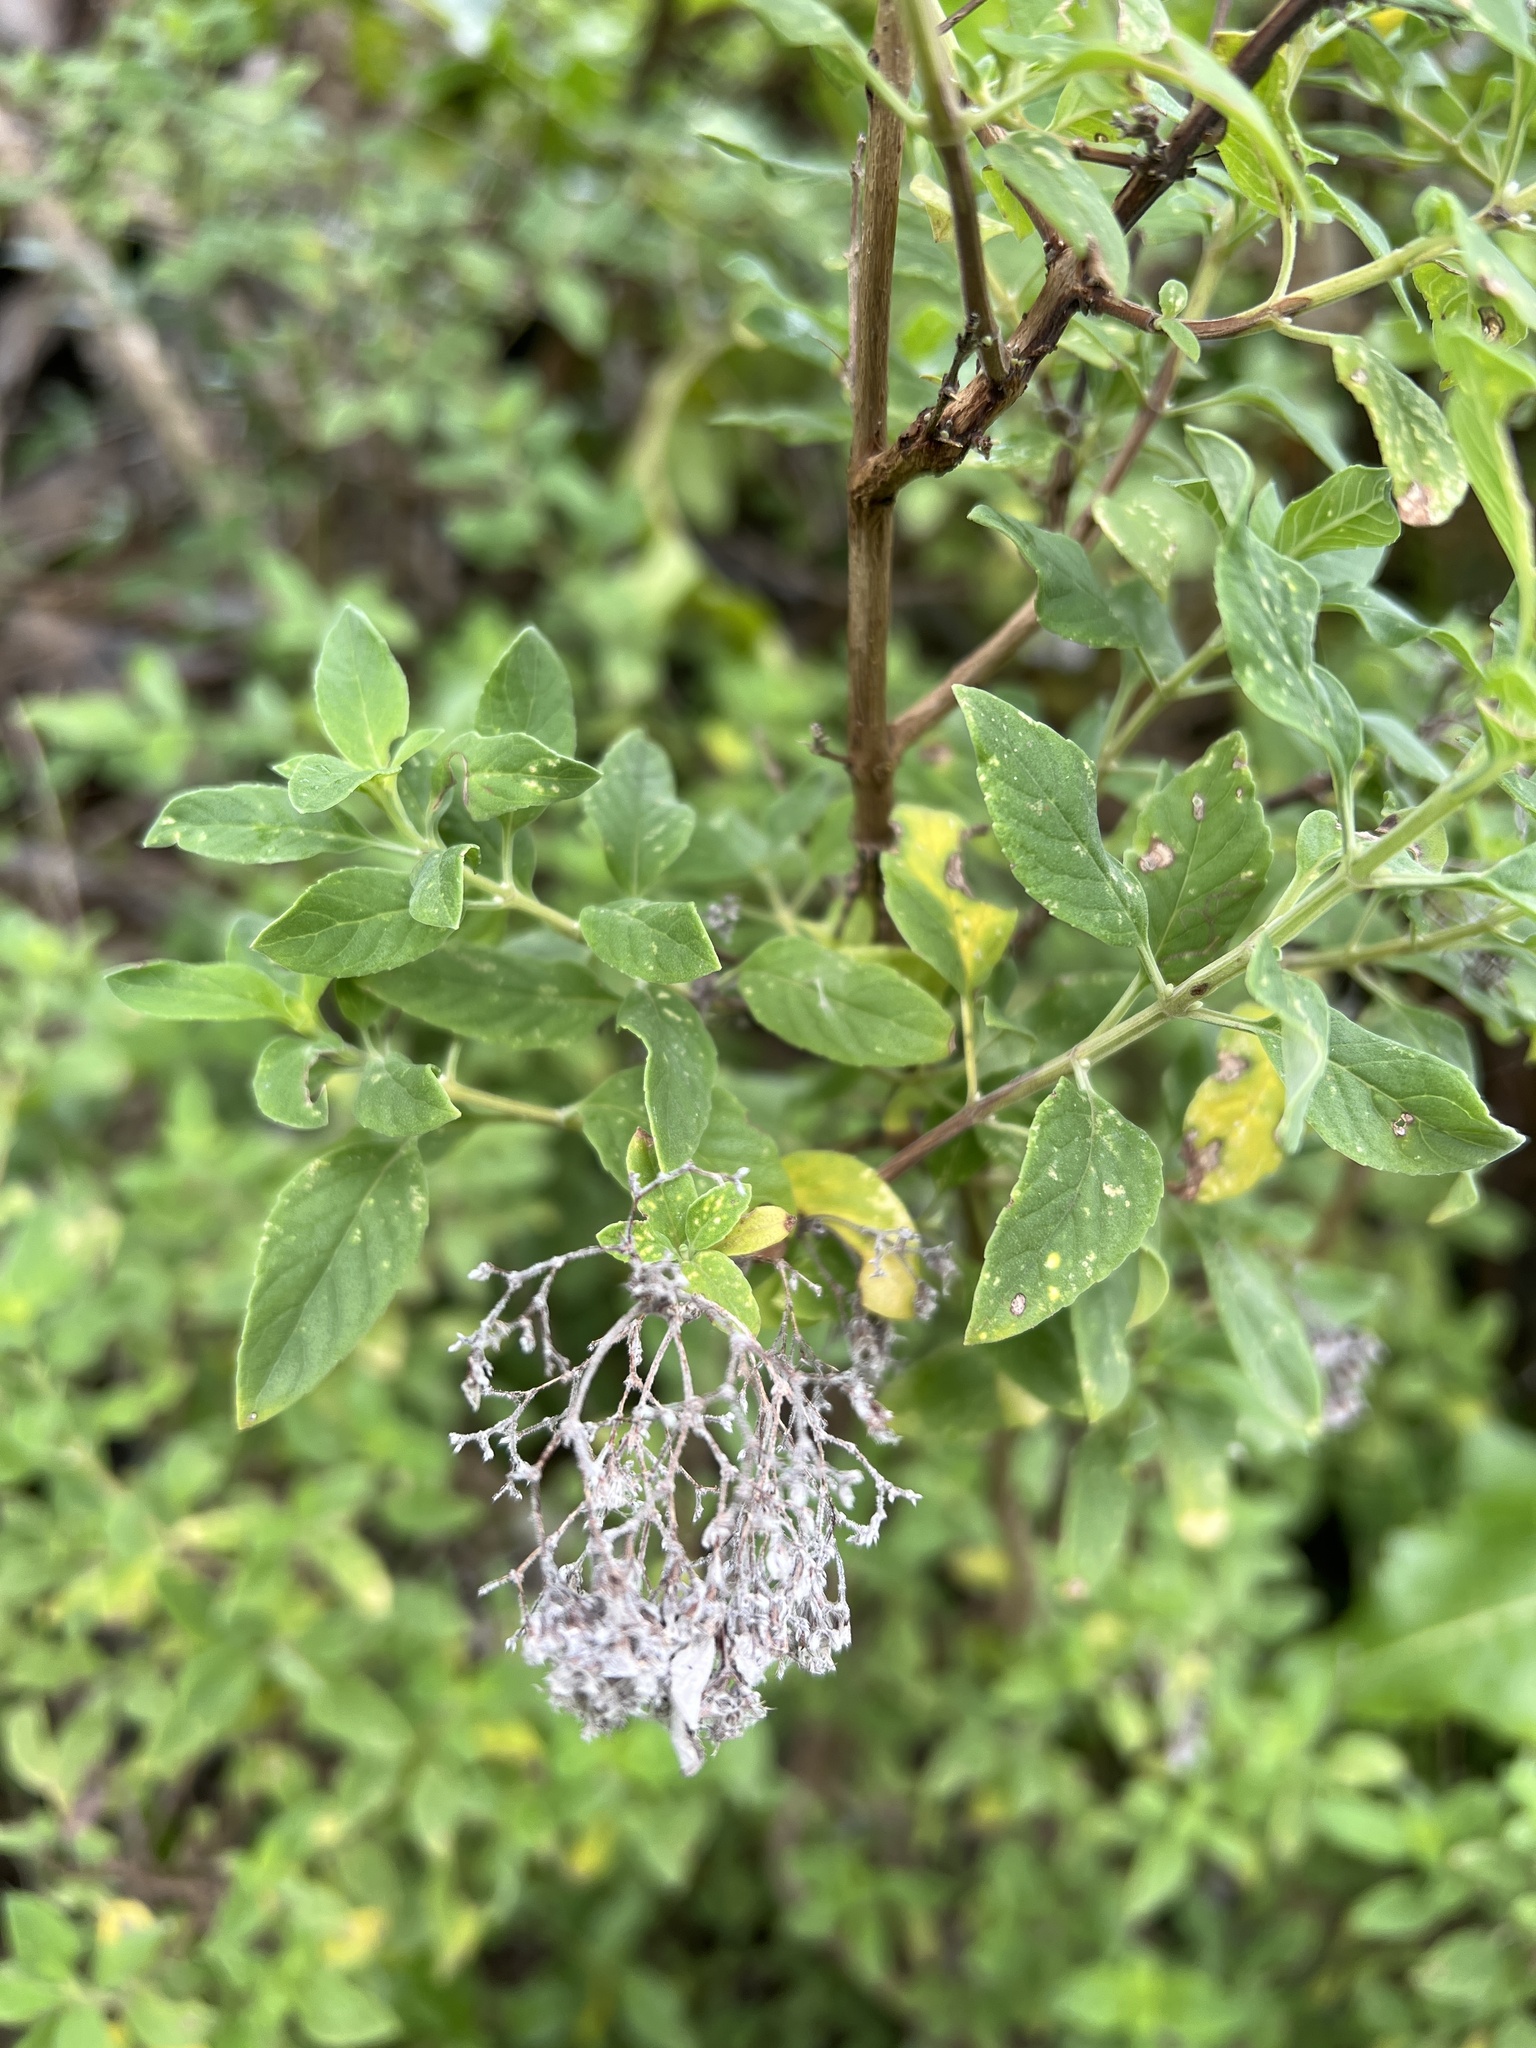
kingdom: Plantae
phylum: Tracheophyta
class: Magnoliopsida
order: Lamiales
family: Lamiaceae
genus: Bystropogon
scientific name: Bystropogon origanifolius
